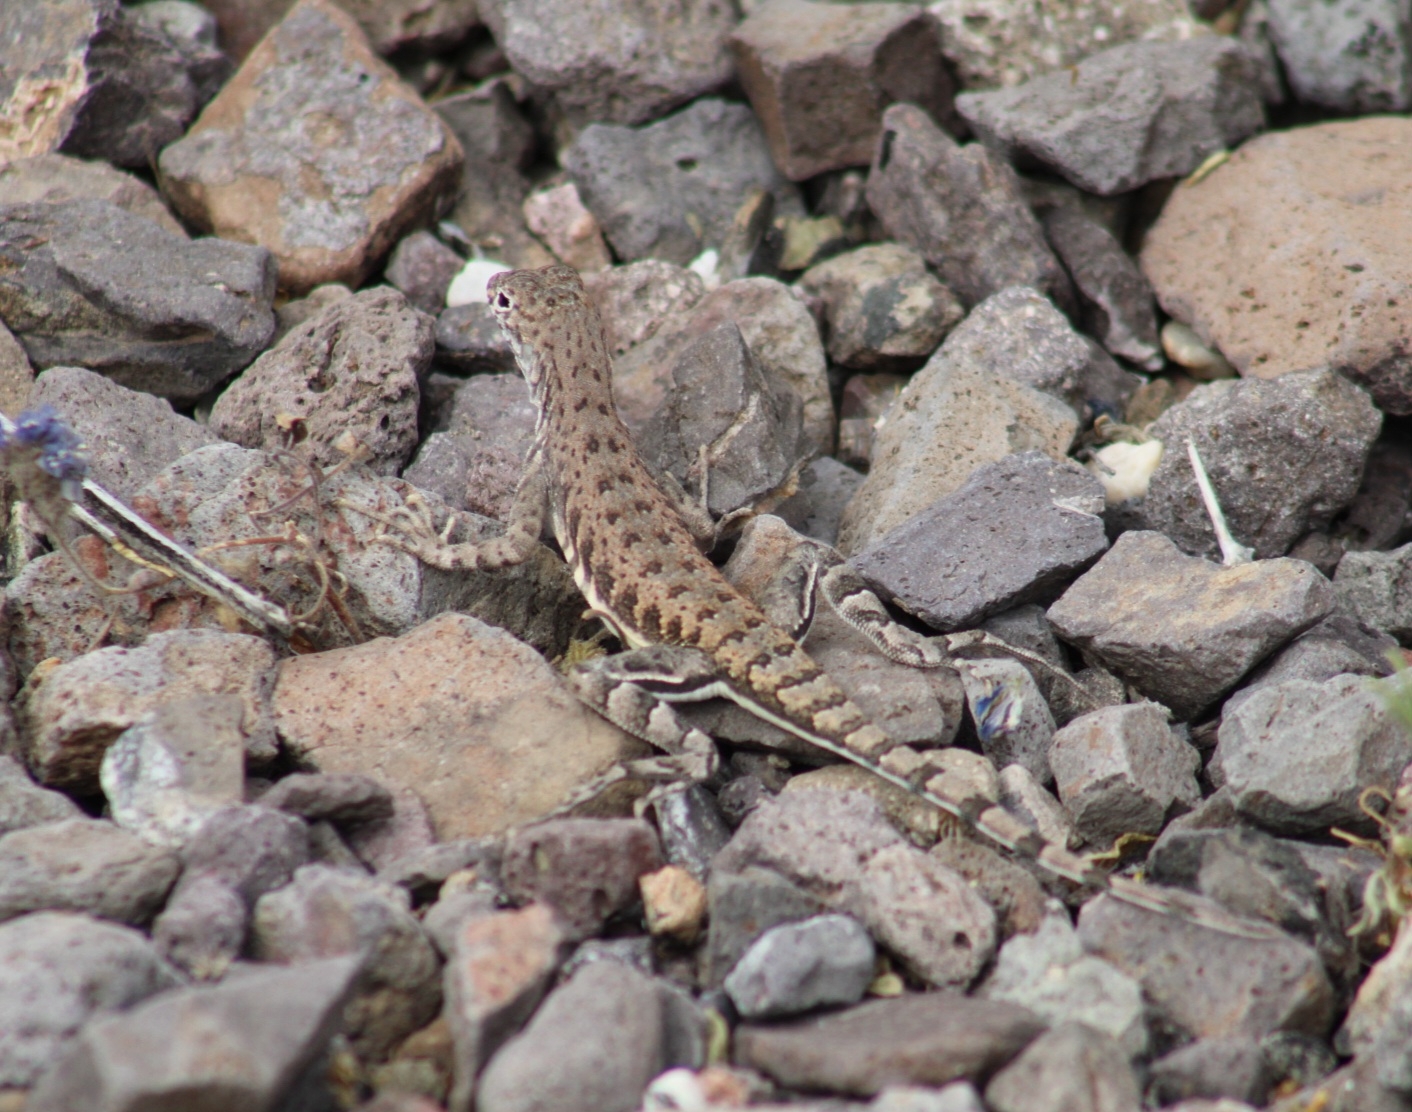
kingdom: Animalia
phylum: Chordata
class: Squamata
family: Phrynosomatidae
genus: Callisaurus
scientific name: Callisaurus draconoides
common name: Zebra-tailed lizard
